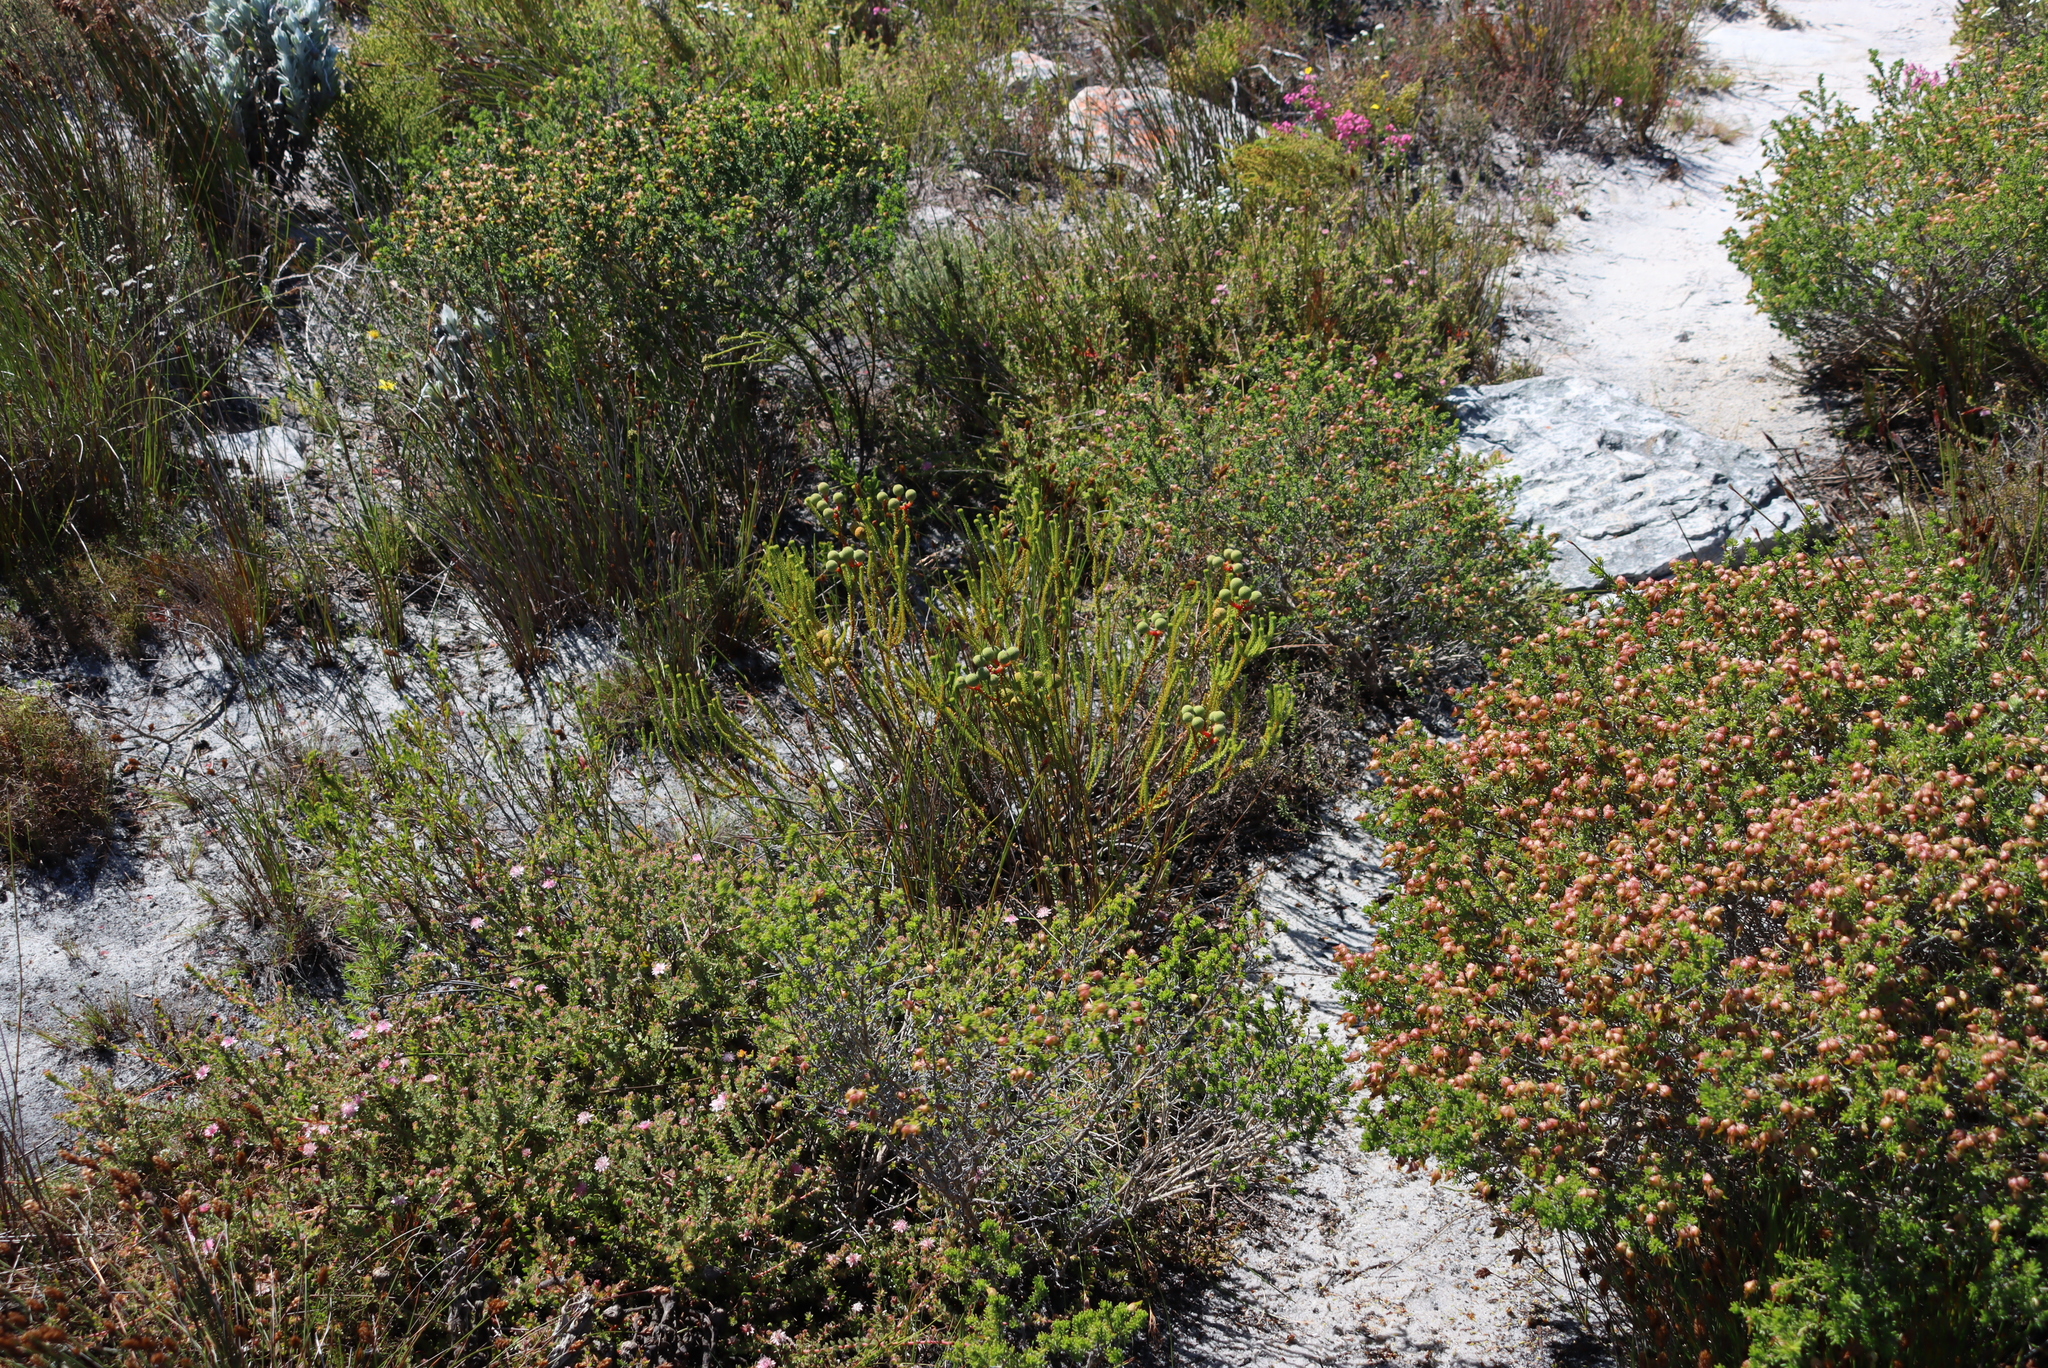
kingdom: Plantae
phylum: Tracheophyta
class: Magnoliopsida
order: Fabales
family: Fabaceae
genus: Aspalathus
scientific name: Aspalathus carnosa
